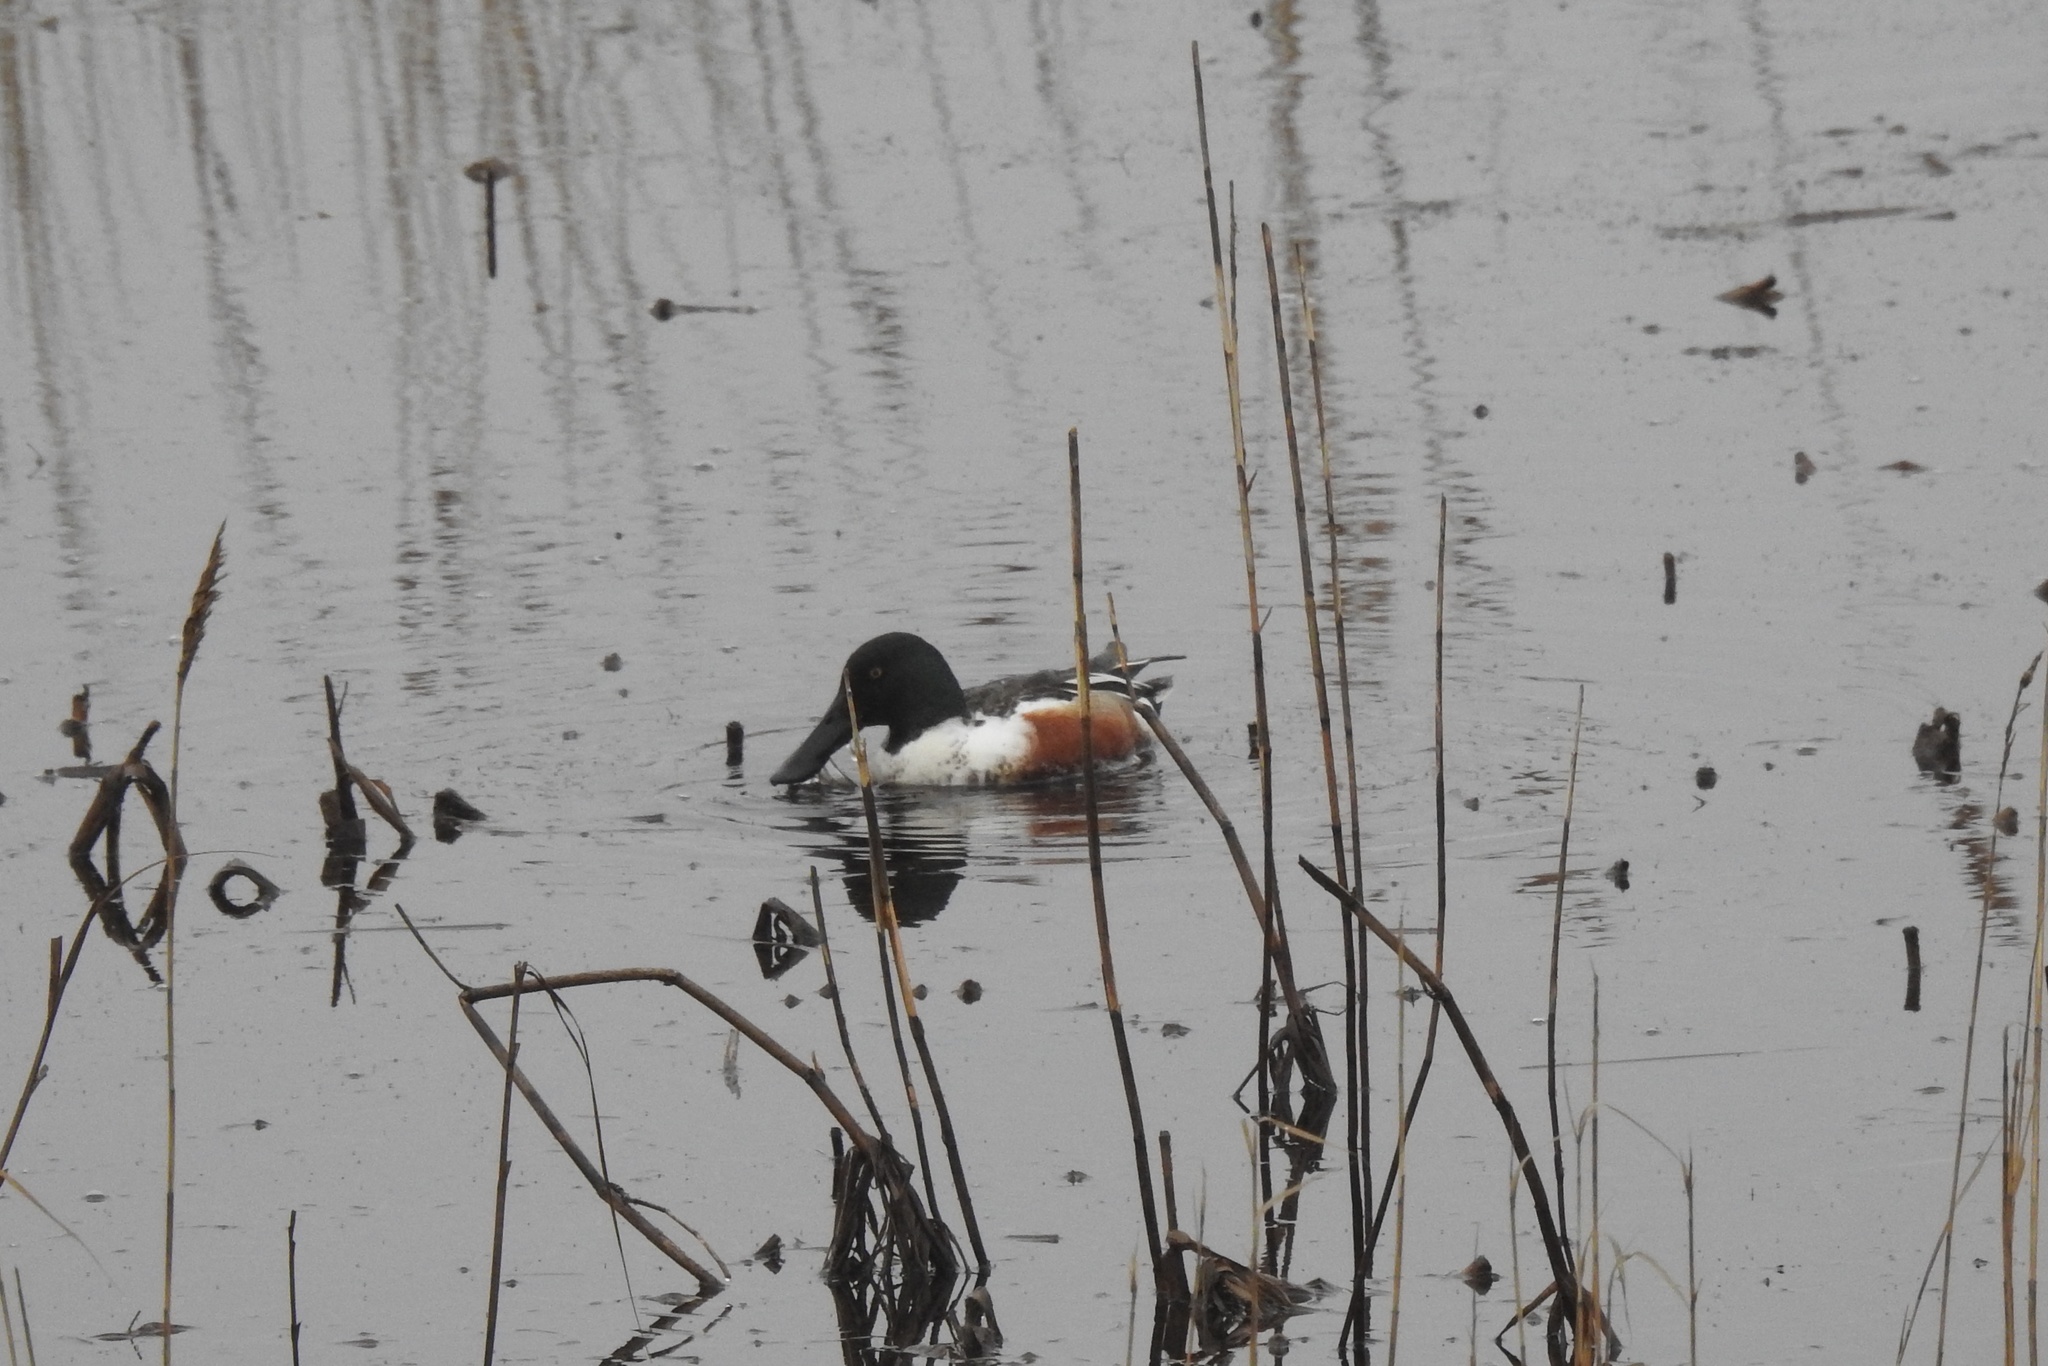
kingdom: Animalia
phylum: Chordata
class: Aves
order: Anseriformes
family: Anatidae
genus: Spatula
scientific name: Spatula clypeata
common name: Northern shoveler
